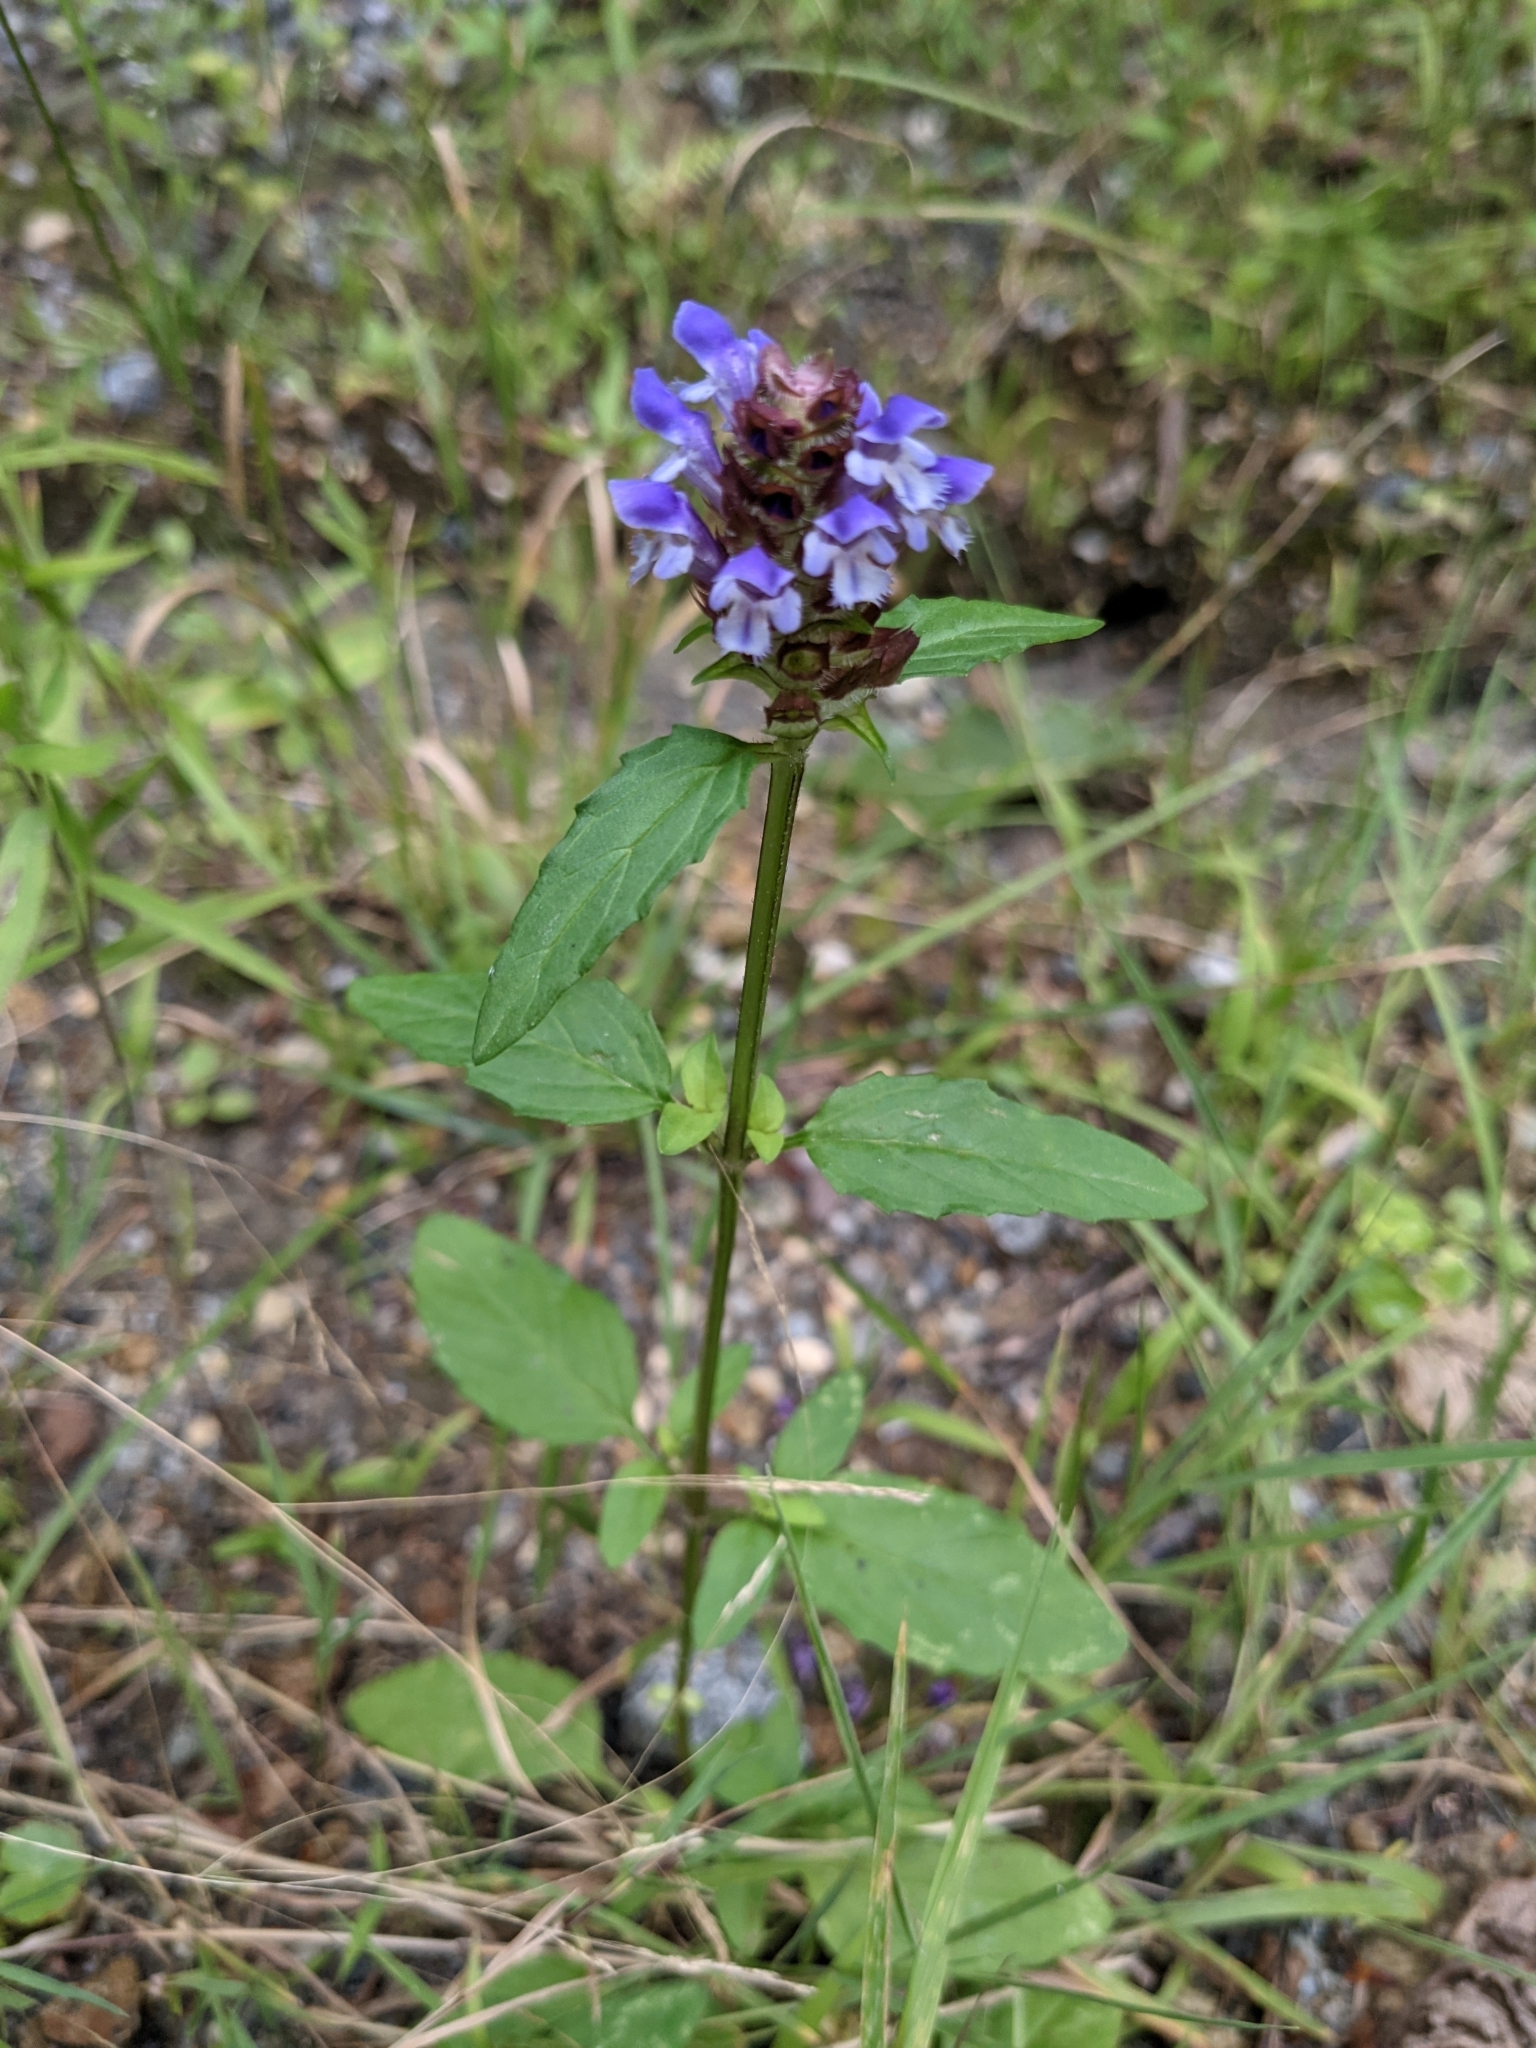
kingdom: Plantae
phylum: Tracheophyta
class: Magnoliopsida
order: Lamiales
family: Lamiaceae
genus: Prunella
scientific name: Prunella vulgaris
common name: Heal-all
